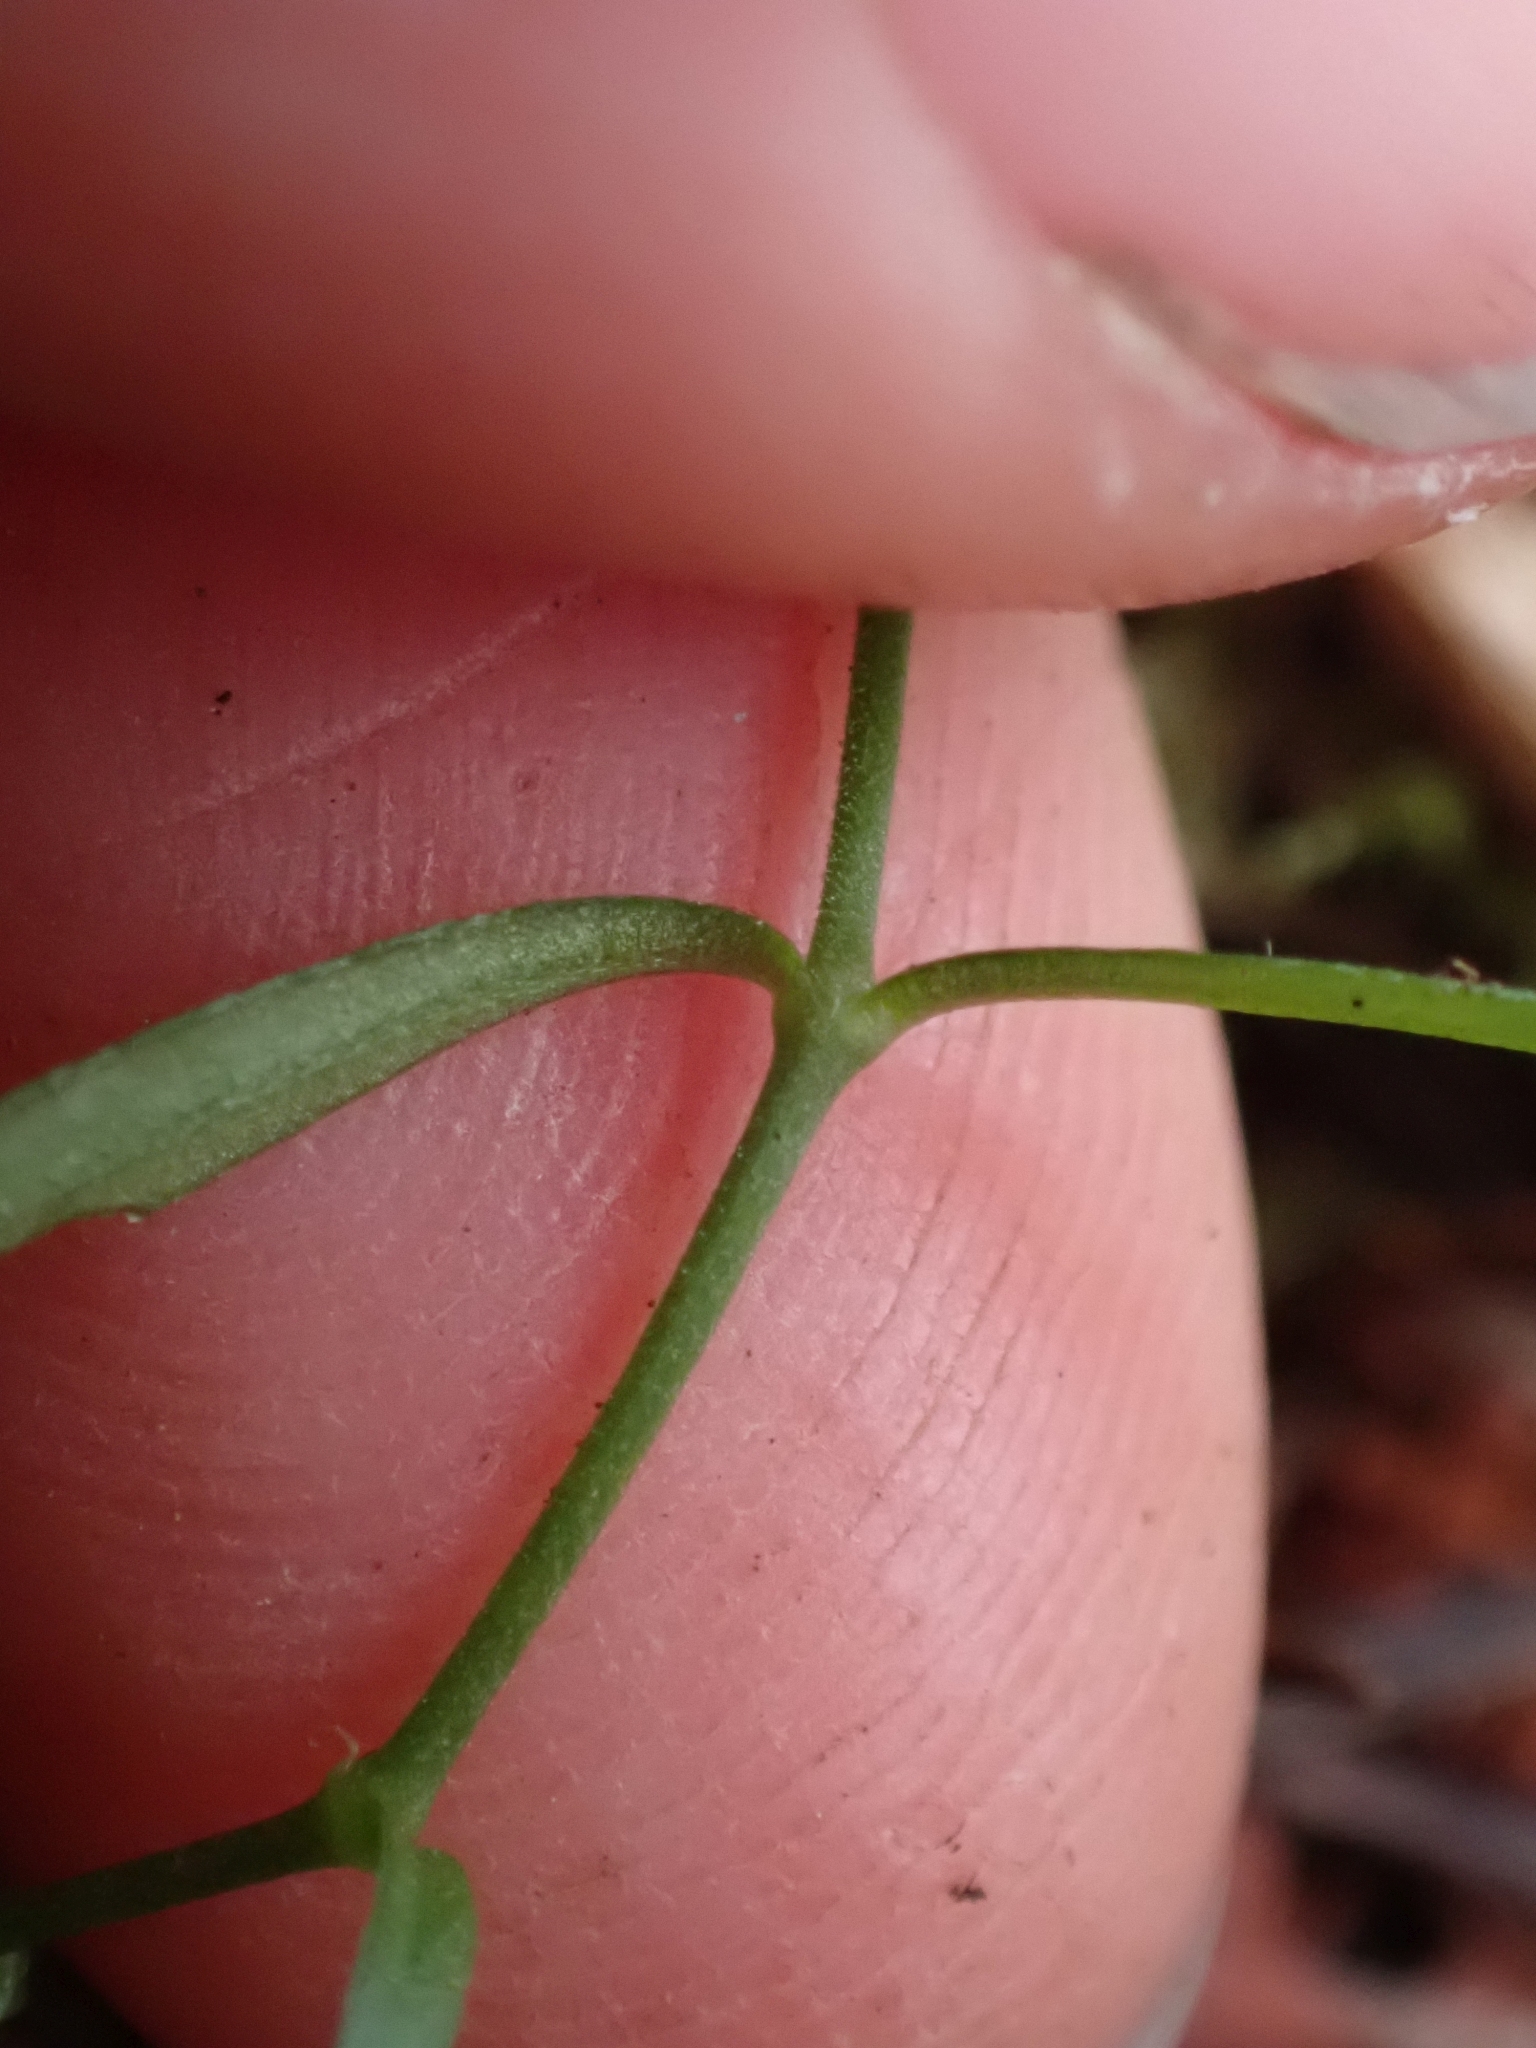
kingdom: Plantae
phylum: Tracheophyta
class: Magnoliopsida
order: Caryophyllales
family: Caryophyllaceae
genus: Moehringia
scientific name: Moehringia macrophylla
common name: Big-leaf sandwort
